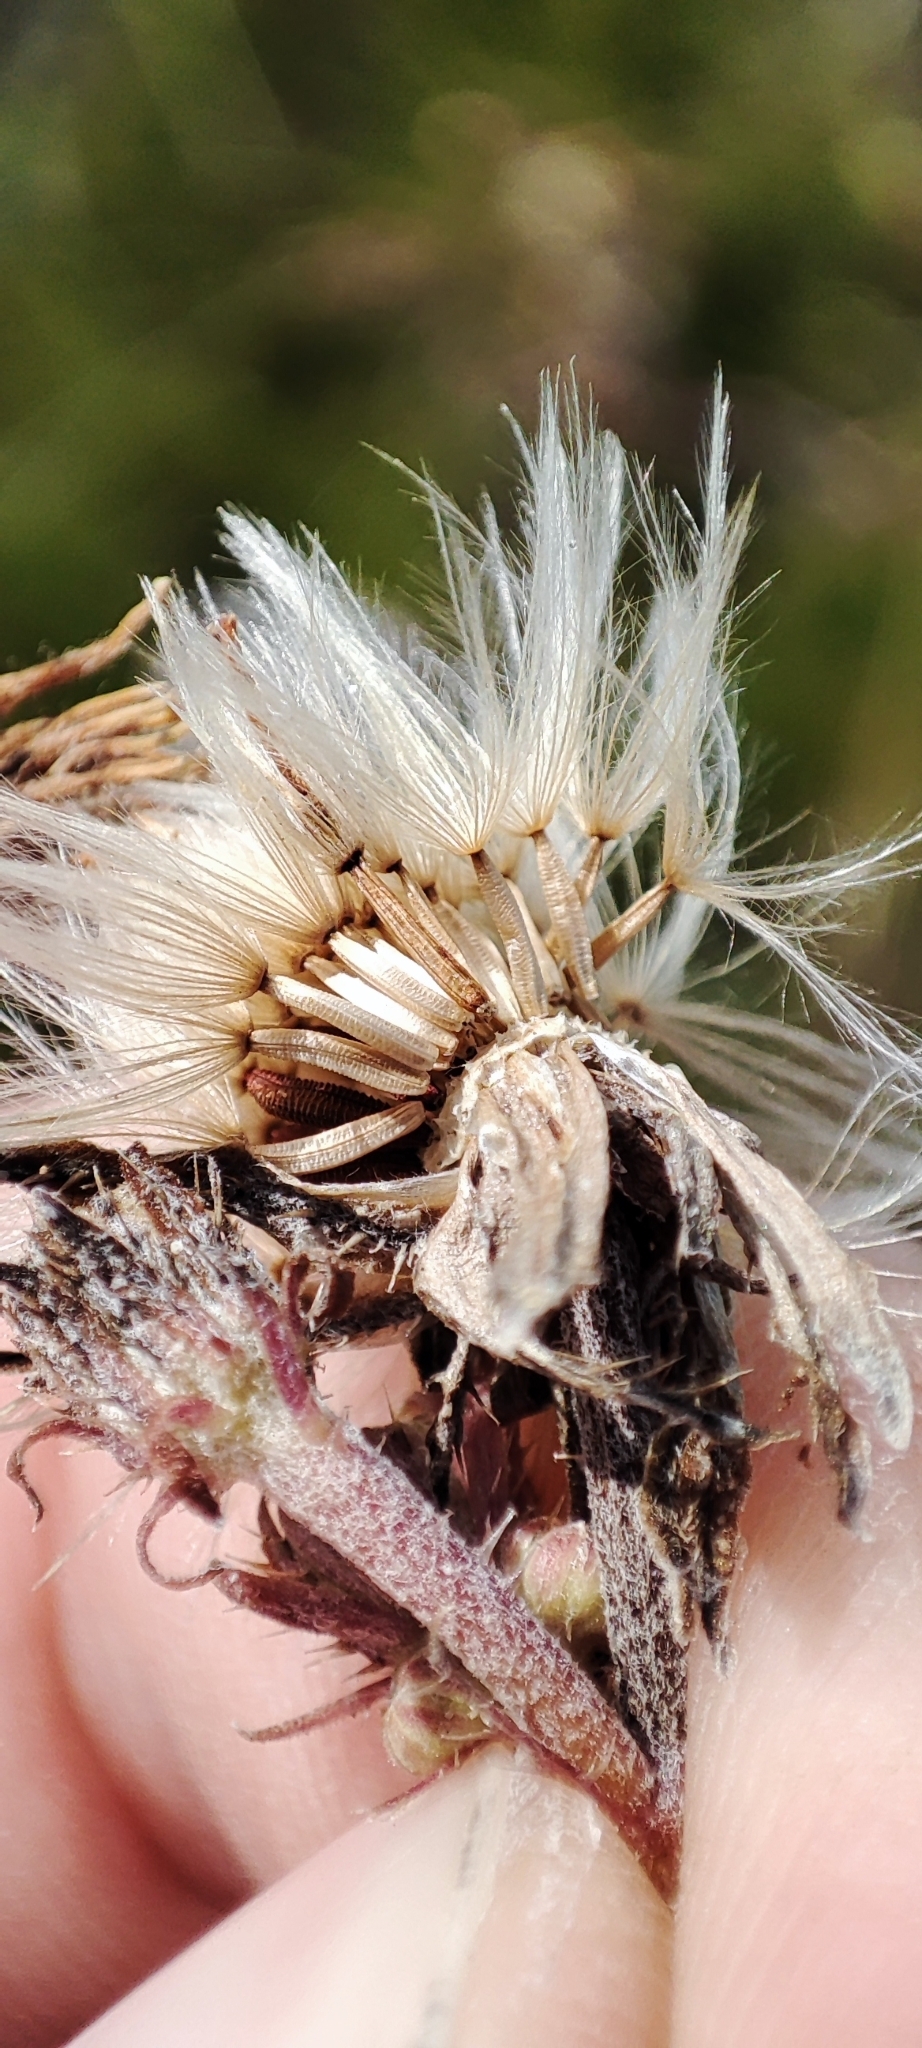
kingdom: Plantae
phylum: Tracheophyta
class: Magnoliopsida
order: Asterales
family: Asteraceae
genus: Picris
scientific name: Picris hieracioides
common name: Hawkweed oxtongue
